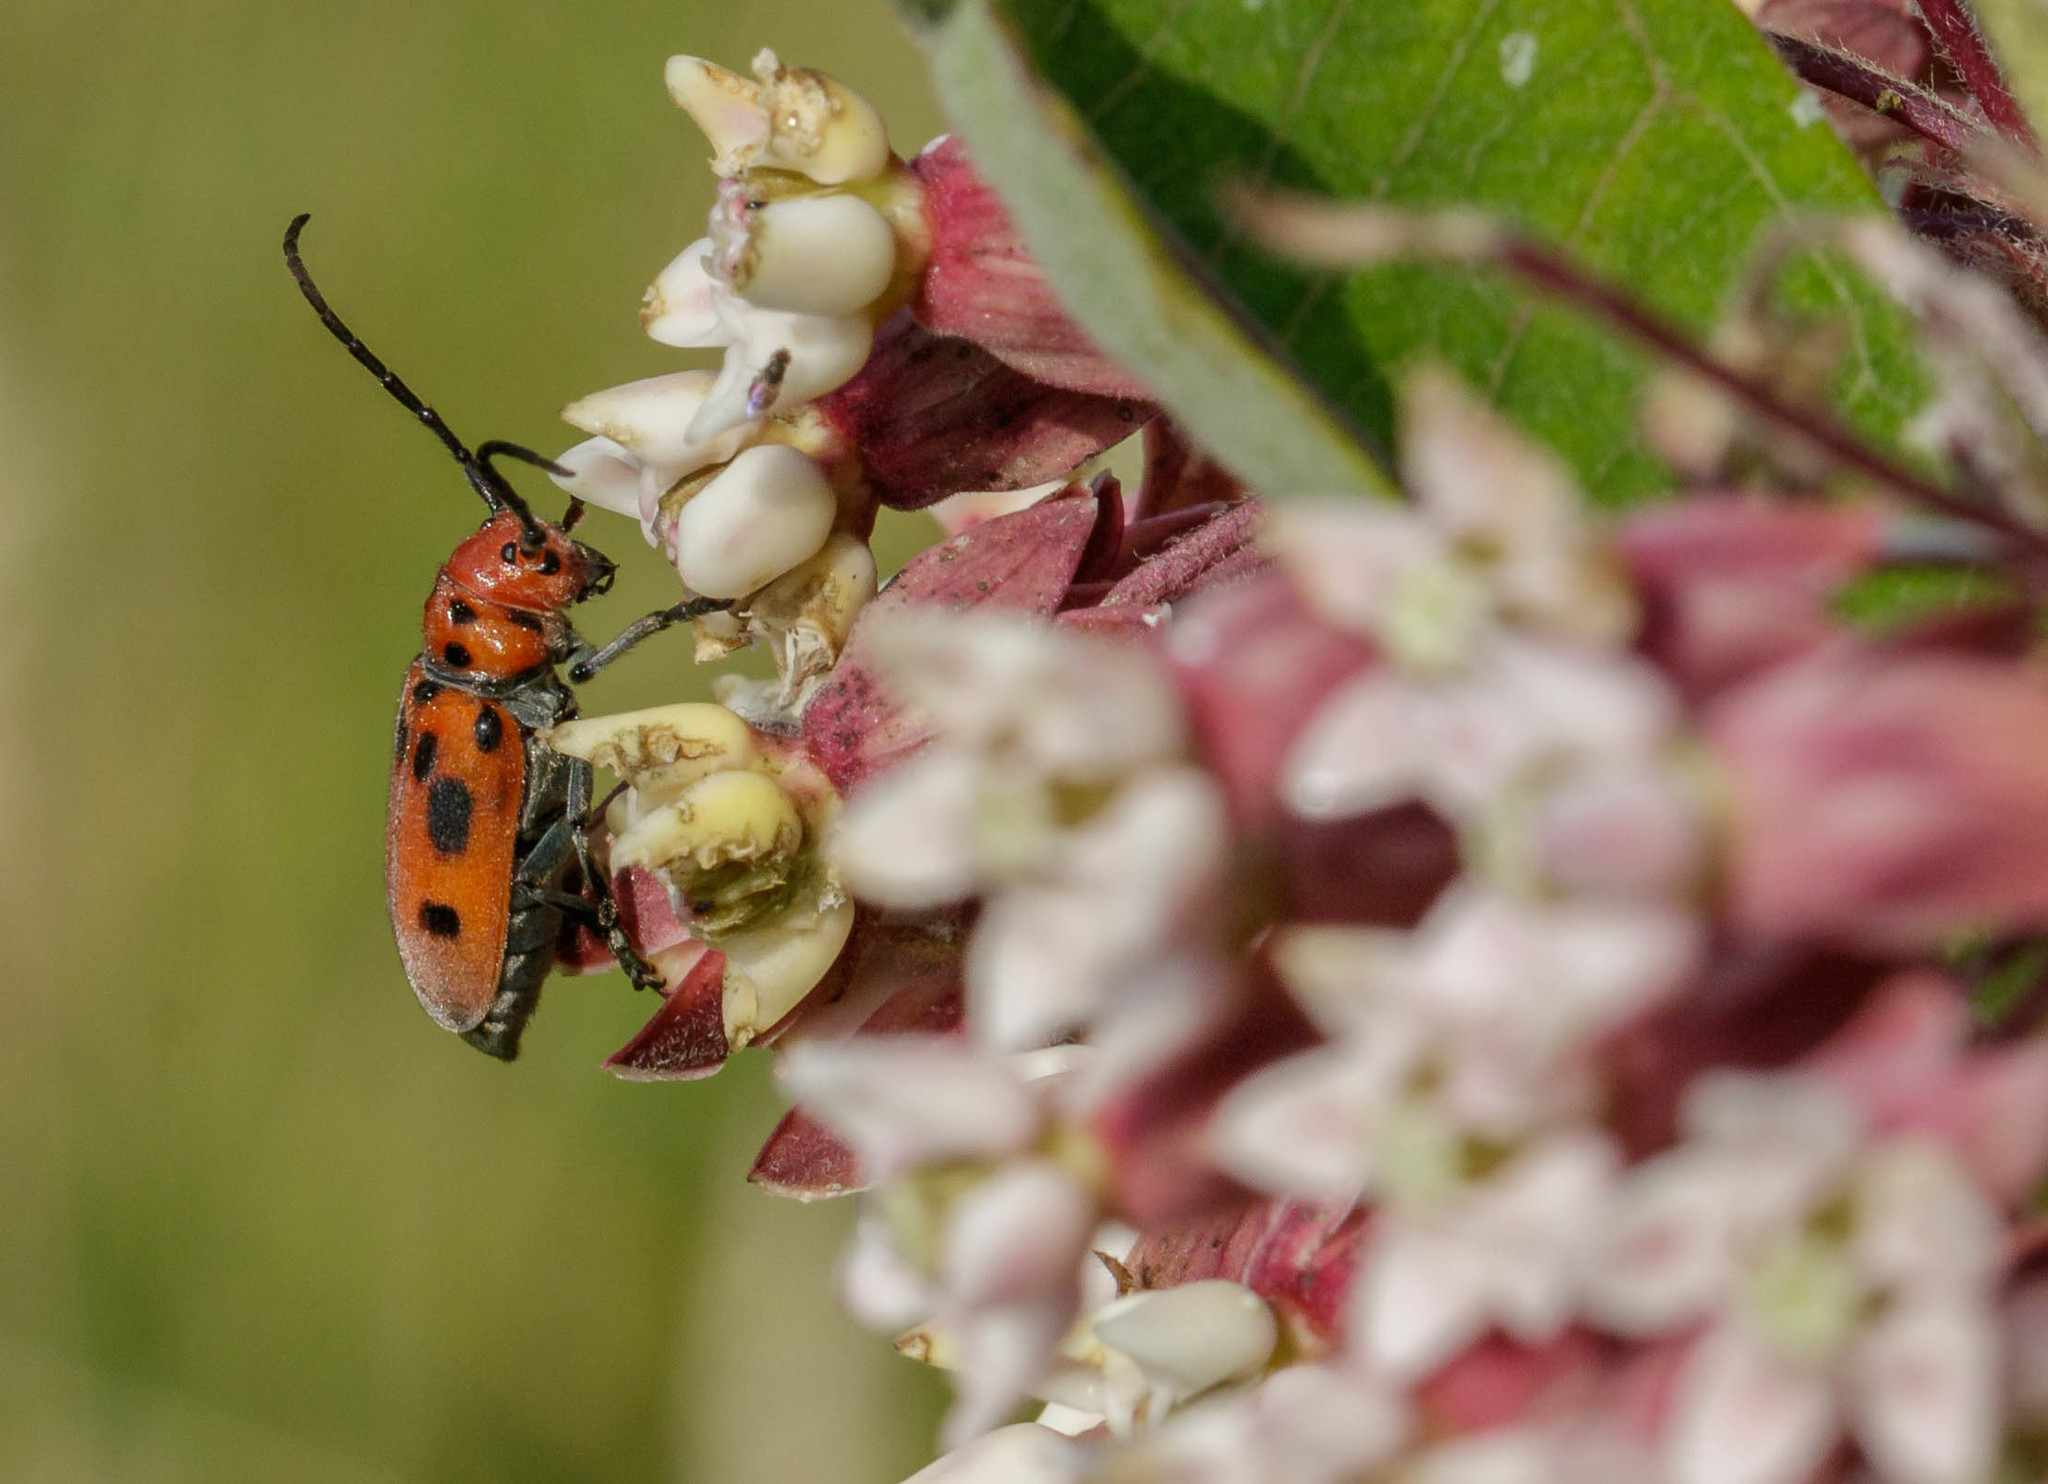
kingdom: Animalia
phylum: Arthropoda
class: Insecta
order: Coleoptera
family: Cerambycidae
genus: Tetraopes
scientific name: Tetraopes tetrophthalmus
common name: Red milkweed beetle
